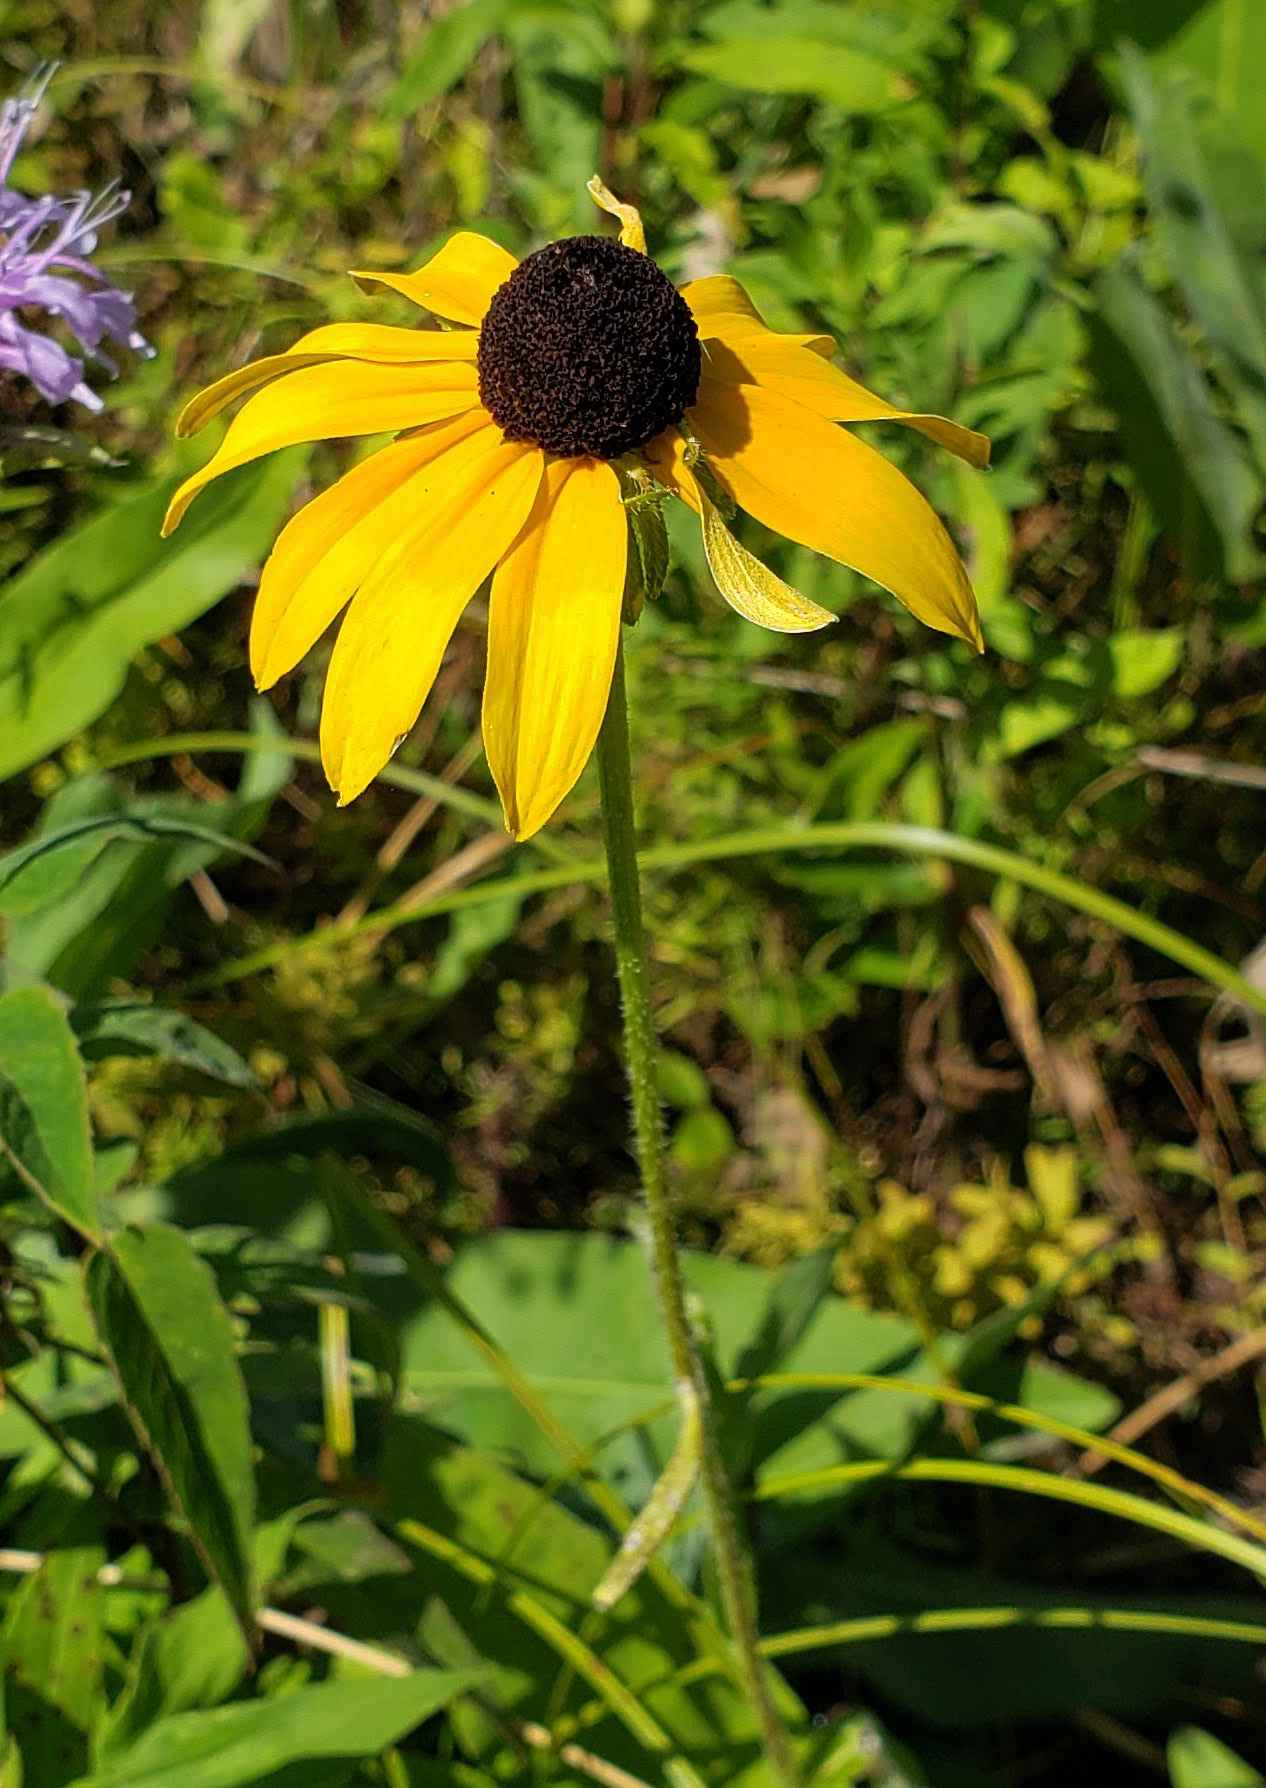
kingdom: Plantae
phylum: Tracheophyta
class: Magnoliopsida
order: Asterales
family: Asteraceae
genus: Rudbeckia
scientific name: Rudbeckia hirta
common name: Black-eyed-susan
